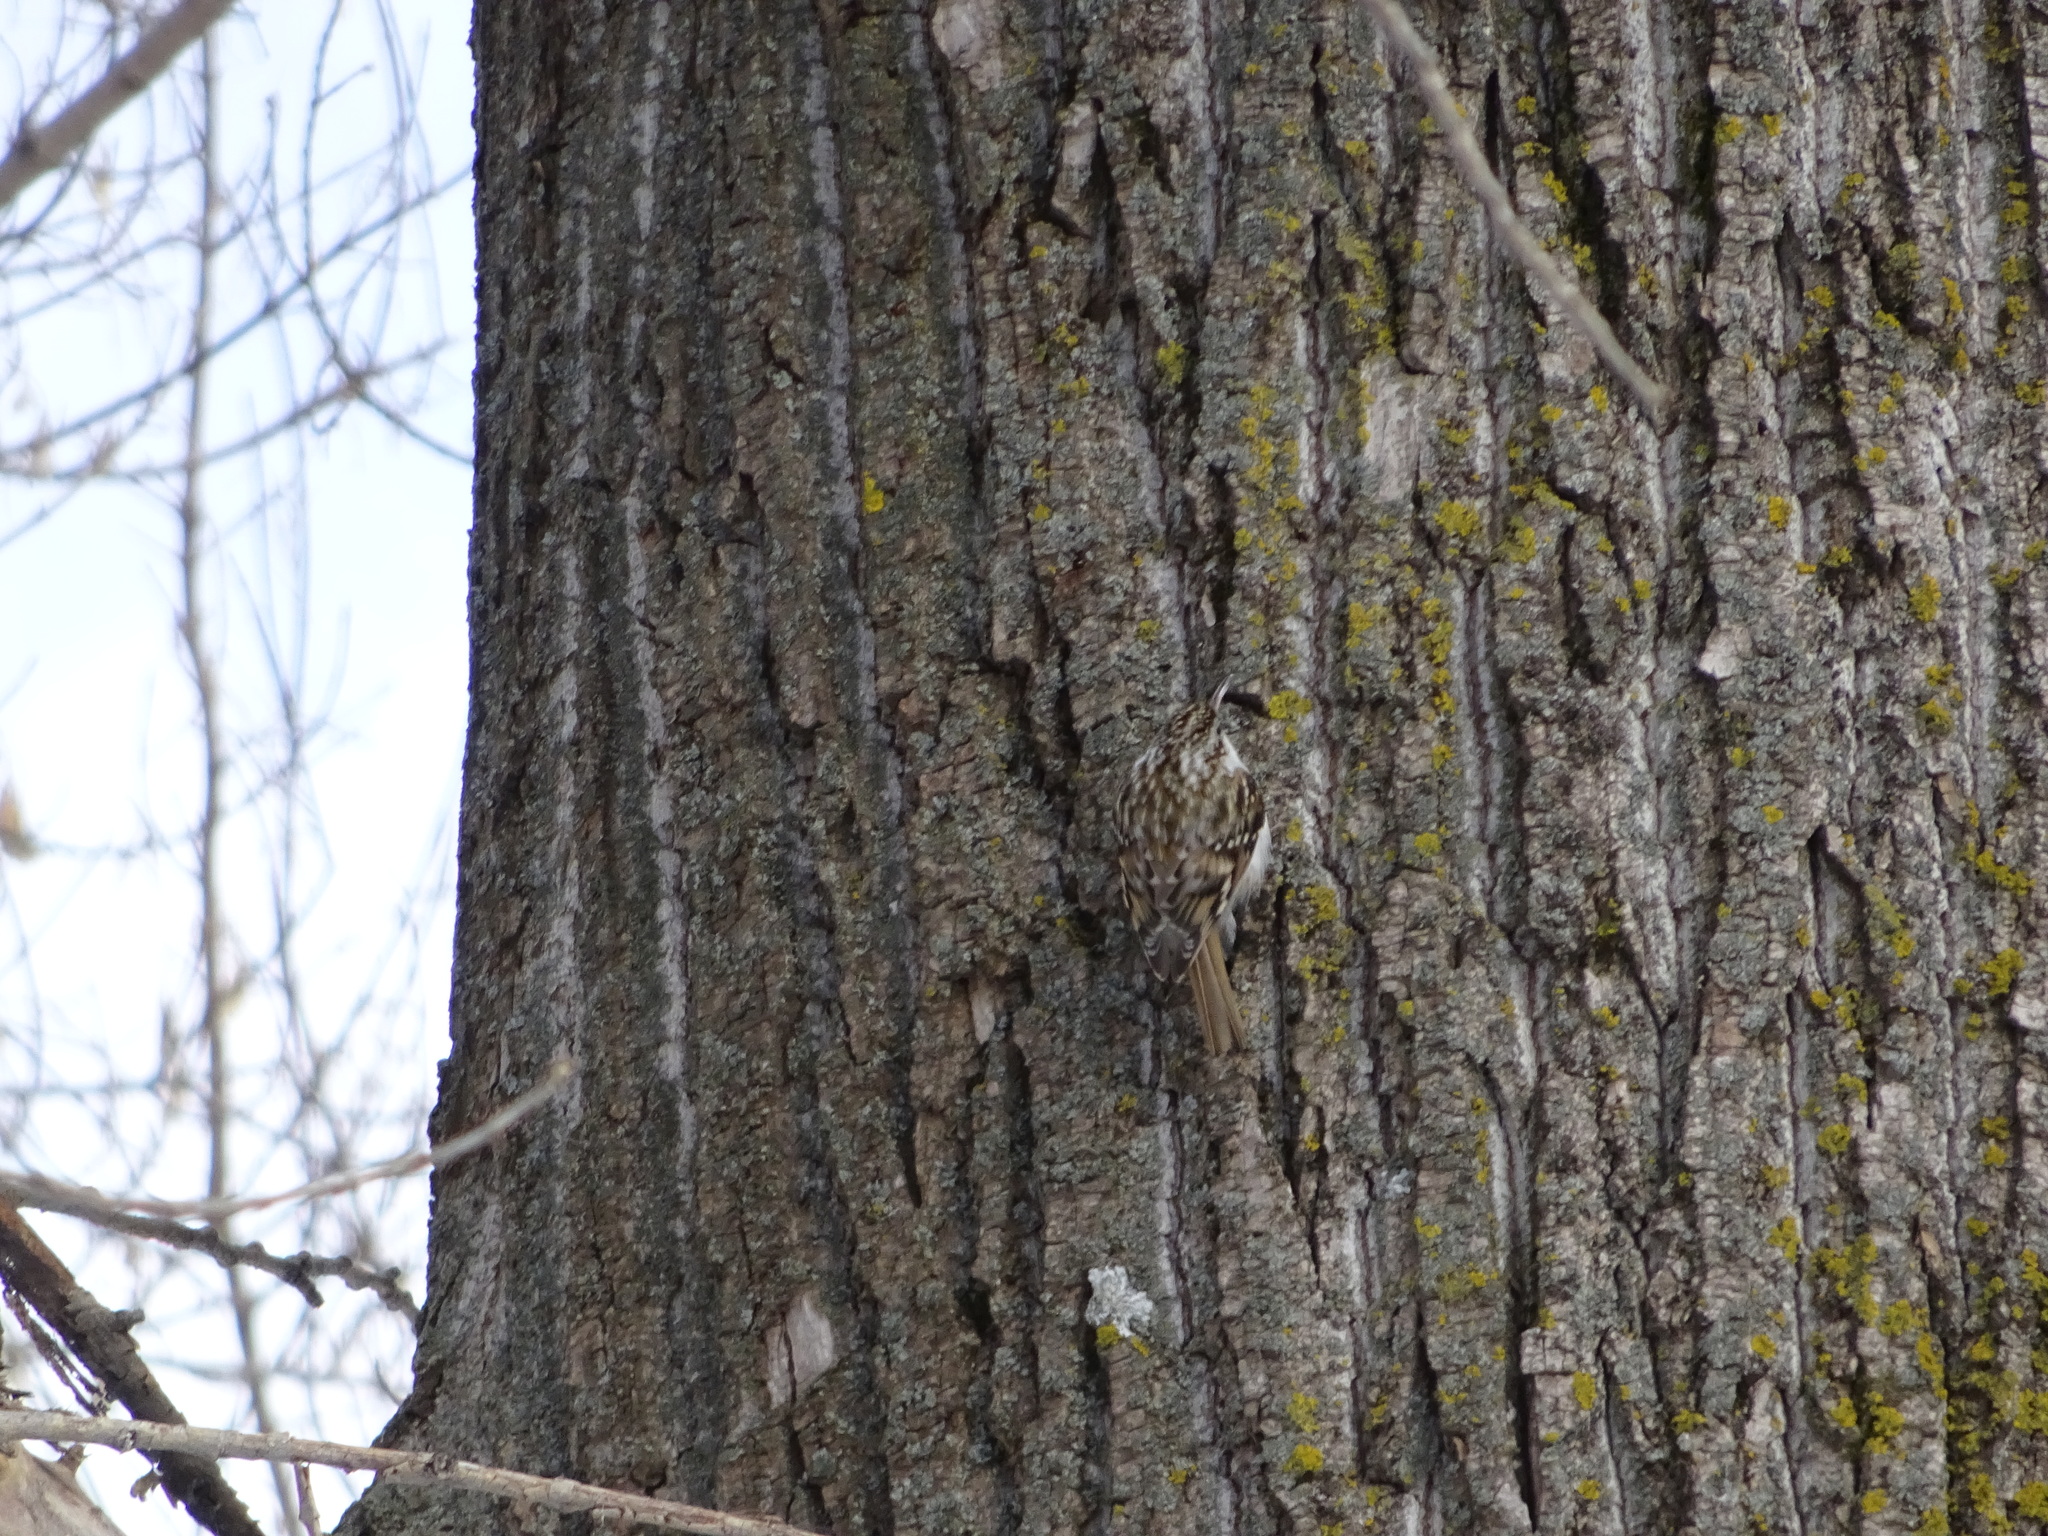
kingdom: Animalia
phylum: Chordata
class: Aves
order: Passeriformes
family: Certhiidae
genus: Certhia
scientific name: Certhia familiaris
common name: Eurasian treecreeper
